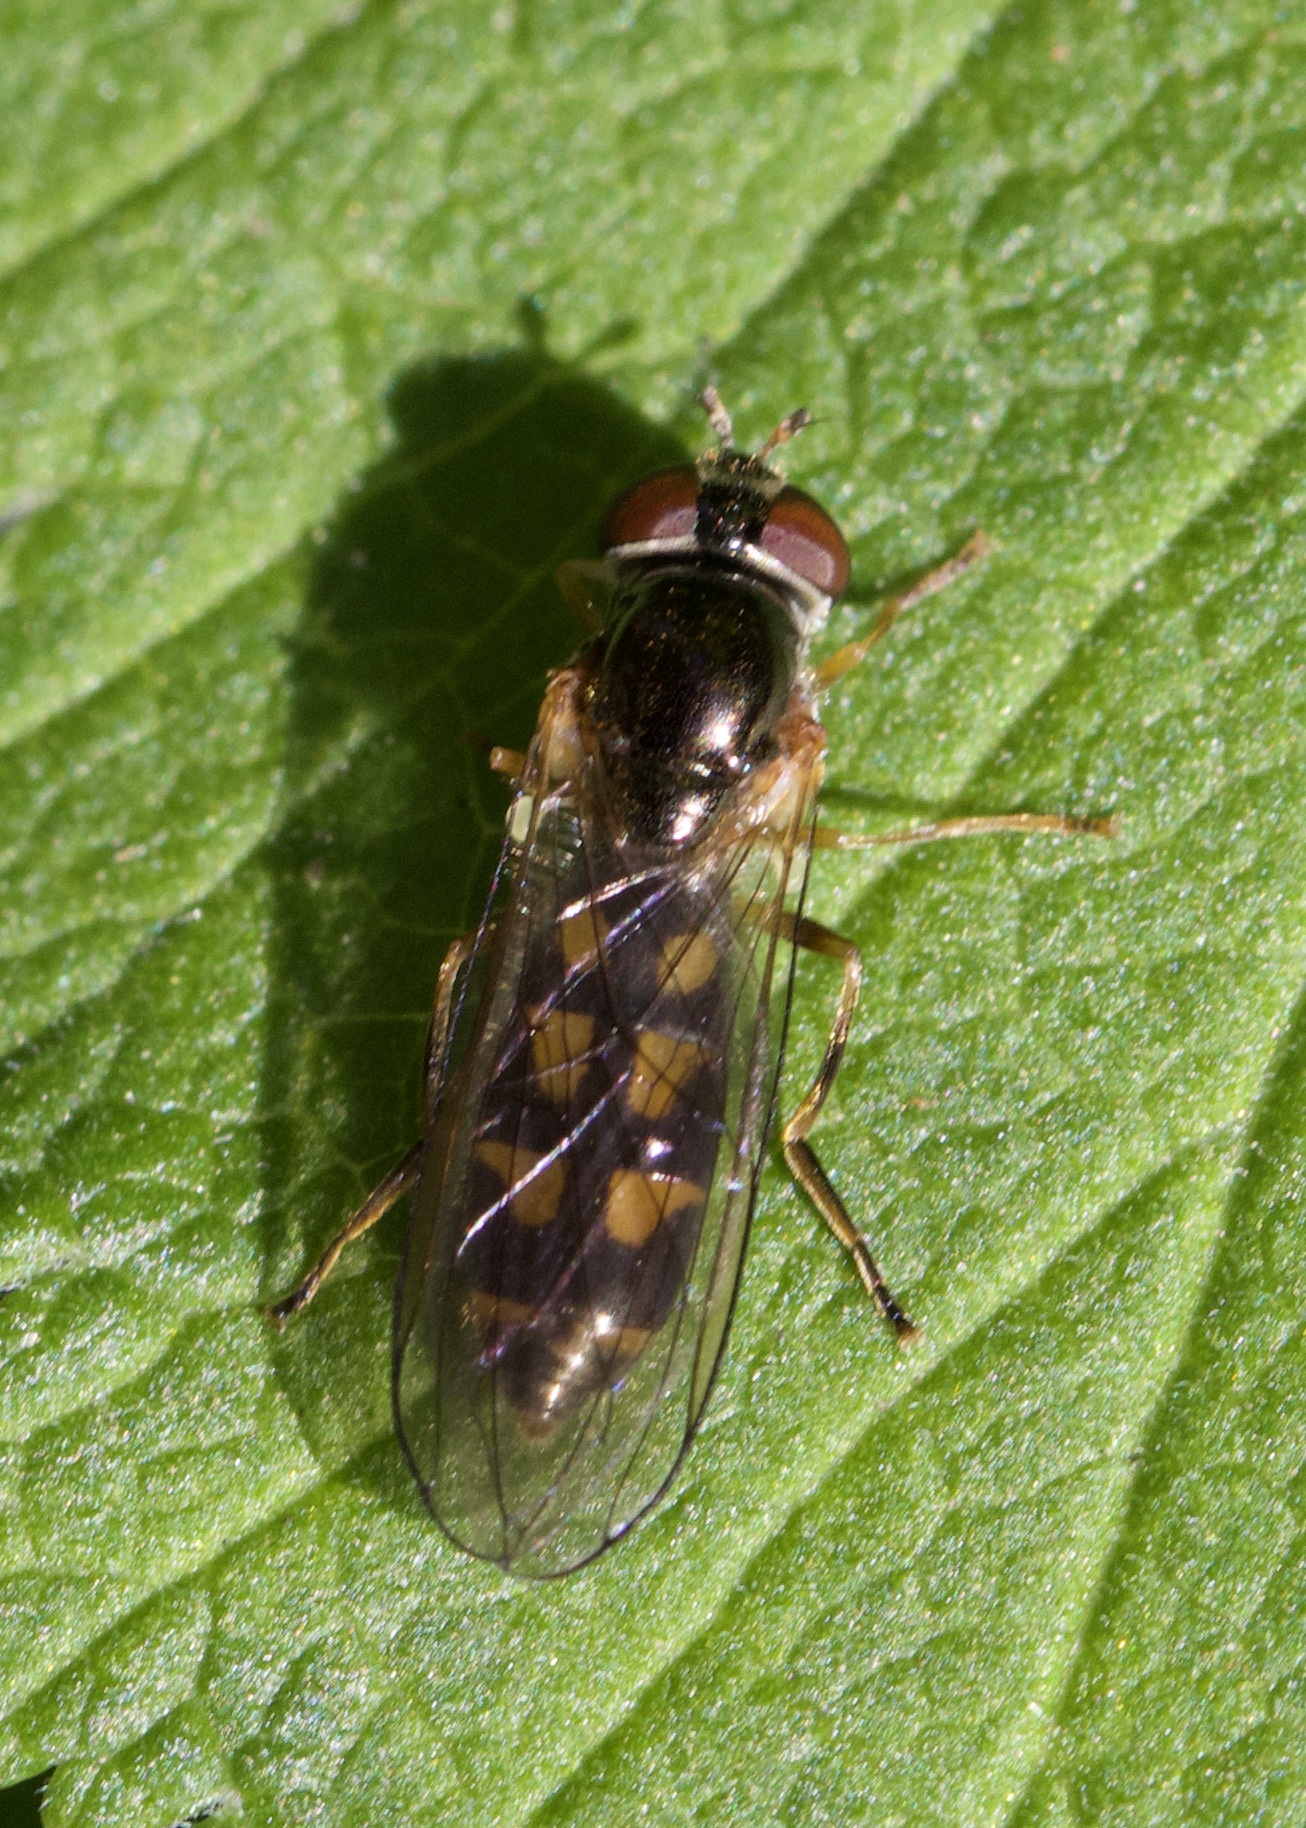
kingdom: Animalia
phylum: Arthropoda
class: Insecta
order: Diptera
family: Syrphidae
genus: Melanostoma
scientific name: Melanostoma scalare
